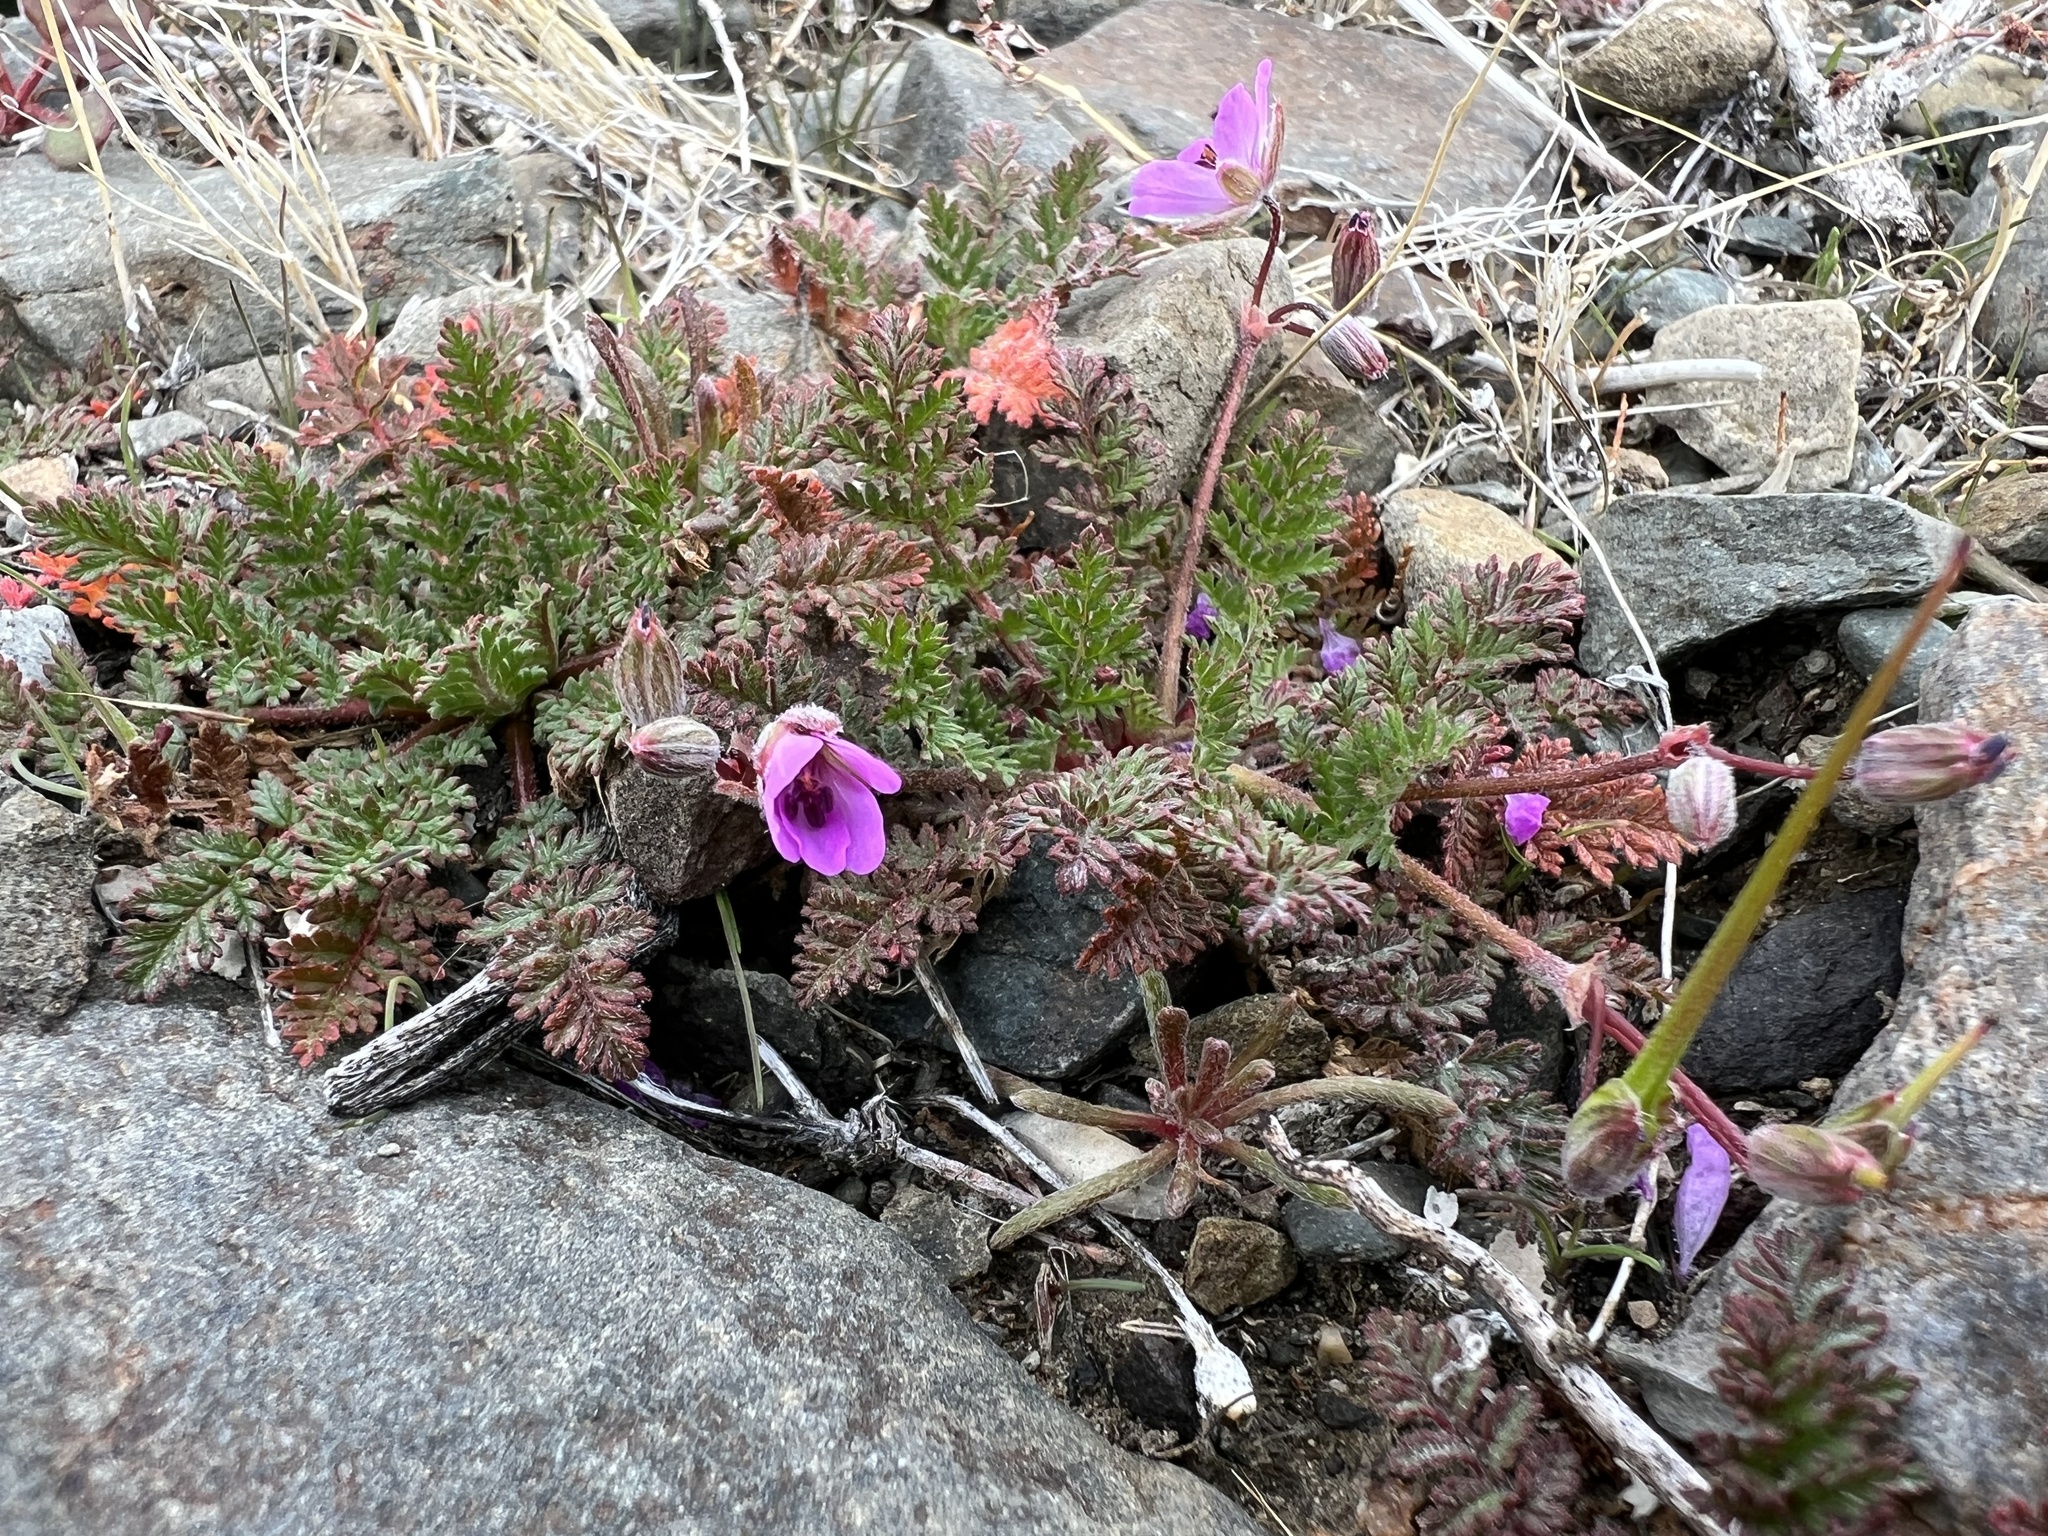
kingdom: Plantae
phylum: Tracheophyta
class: Magnoliopsida
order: Geraniales
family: Geraniaceae
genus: Erodium
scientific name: Erodium cicutarium
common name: Common stork's-bill
